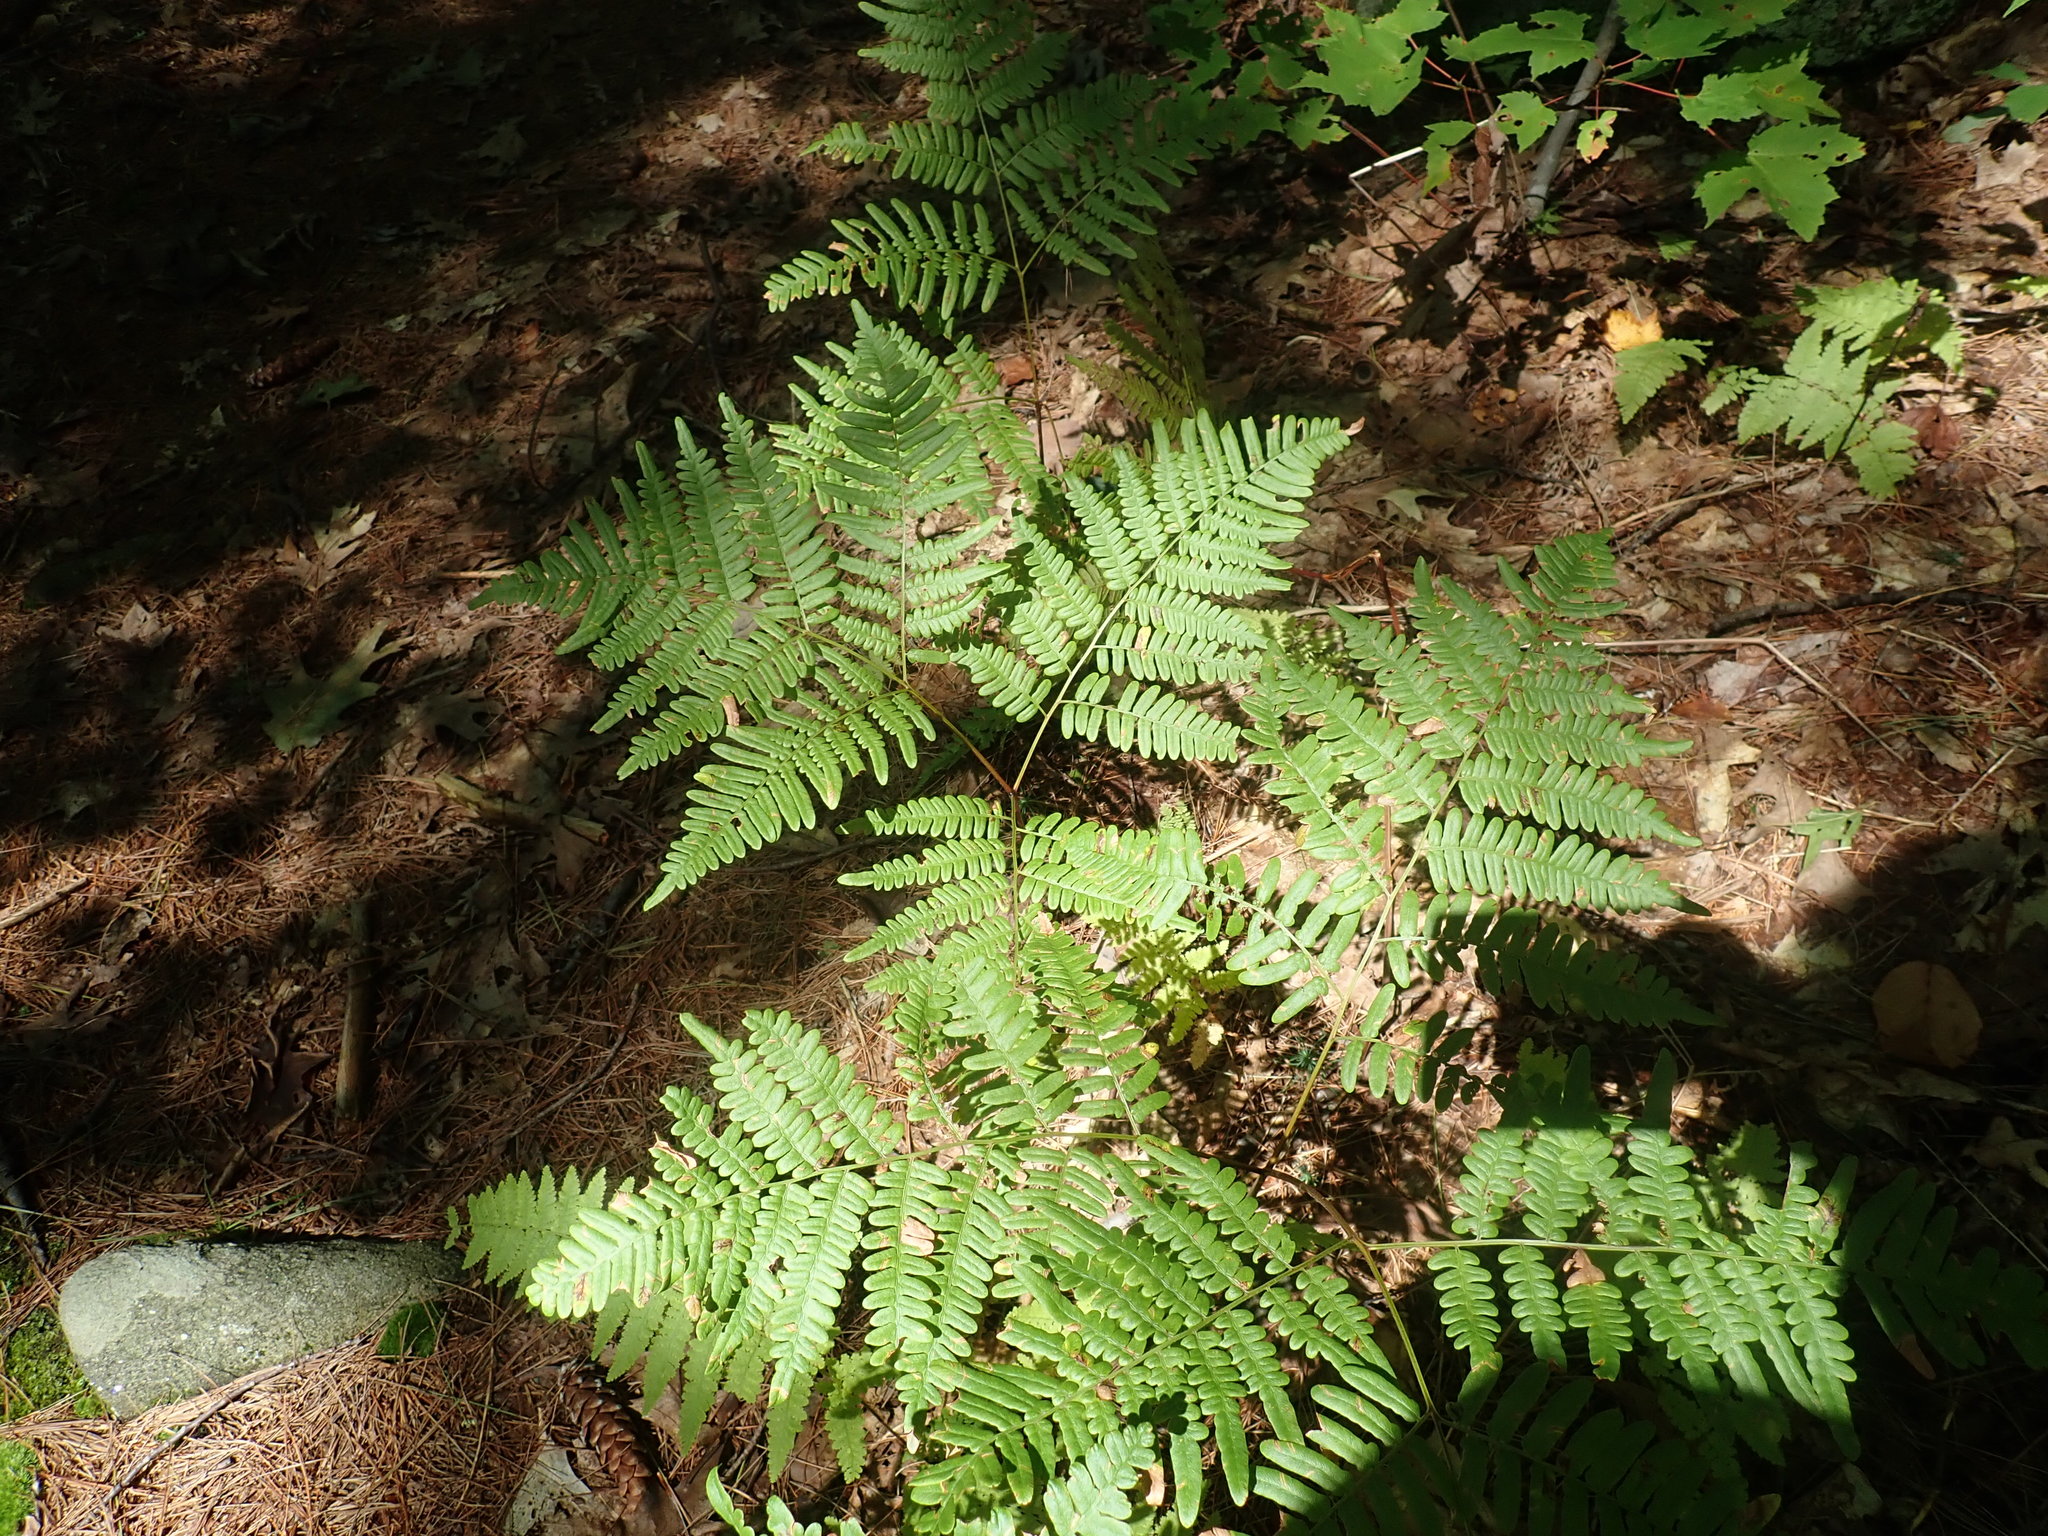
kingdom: Plantae
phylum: Tracheophyta
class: Polypodiopsida
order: Polypodiales
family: Dennstaedtiaceae
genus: Pteridium
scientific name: Pteridium aquilinum
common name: Bracken
